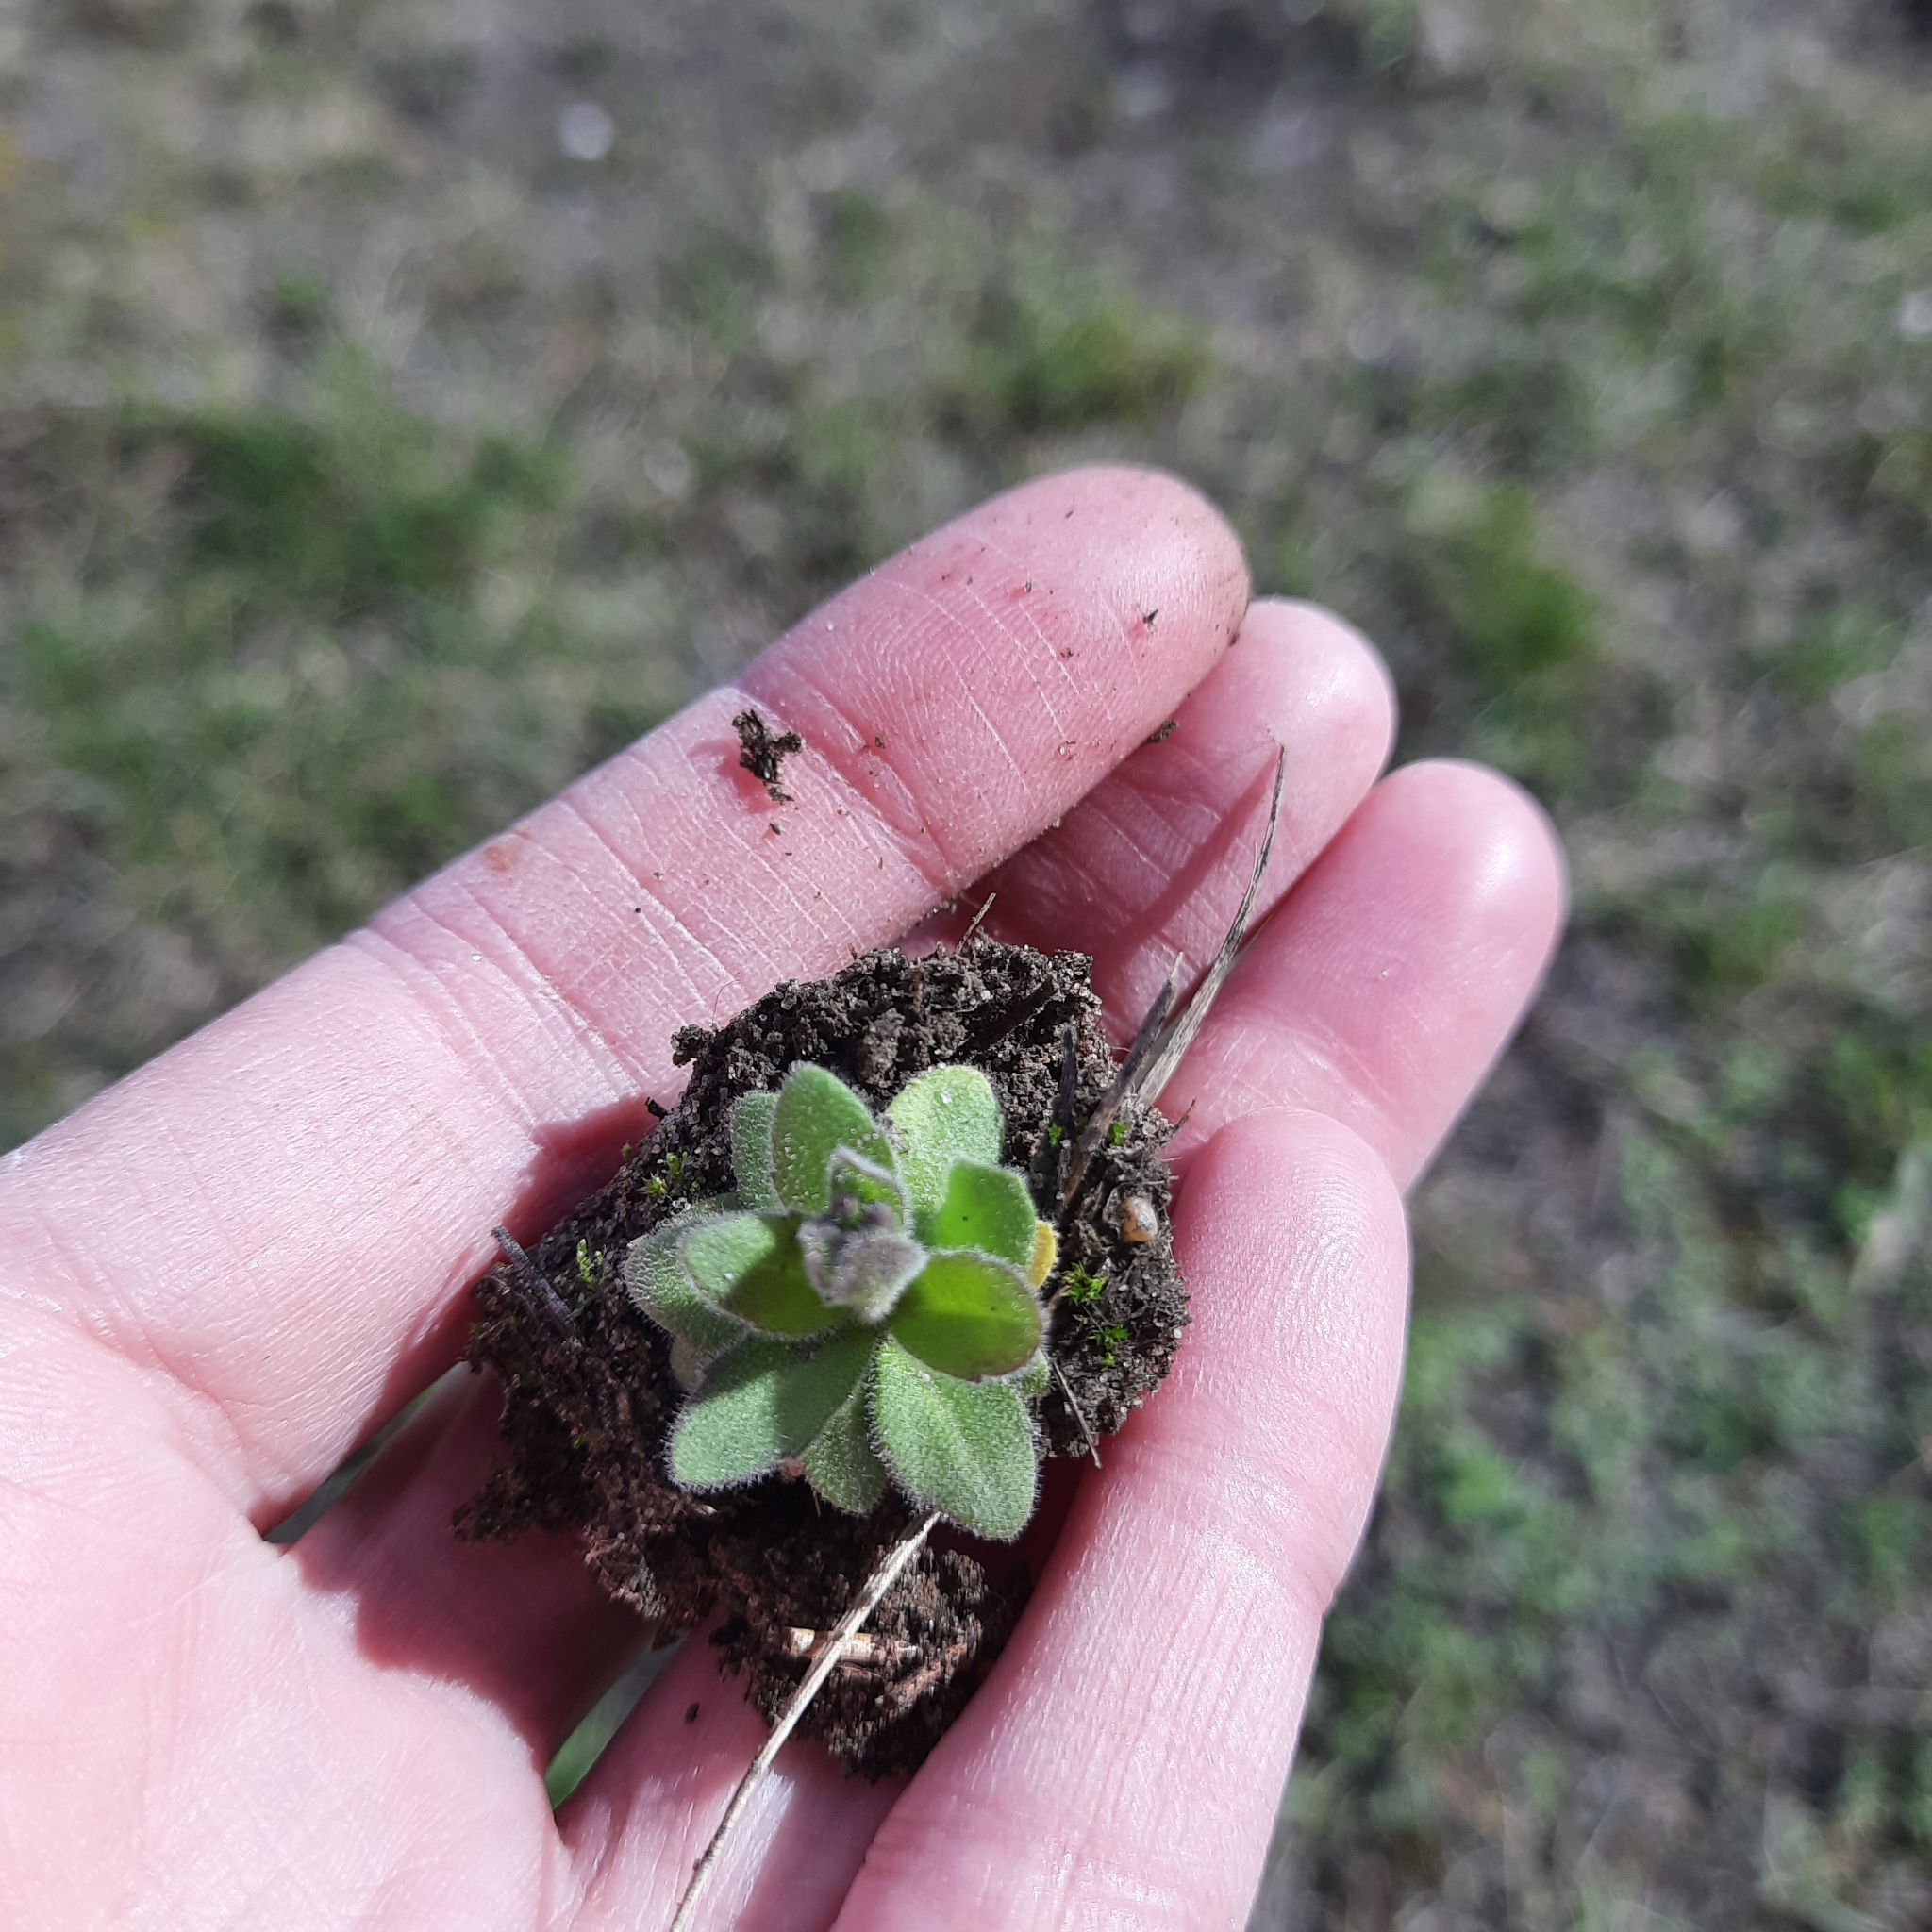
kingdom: Plantae
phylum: Tracheophyta
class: Magnoliopsida
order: Brassicales
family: Brassicaceae
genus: Draba
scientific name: Draba nemorosa
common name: Wood whitlow-grass
